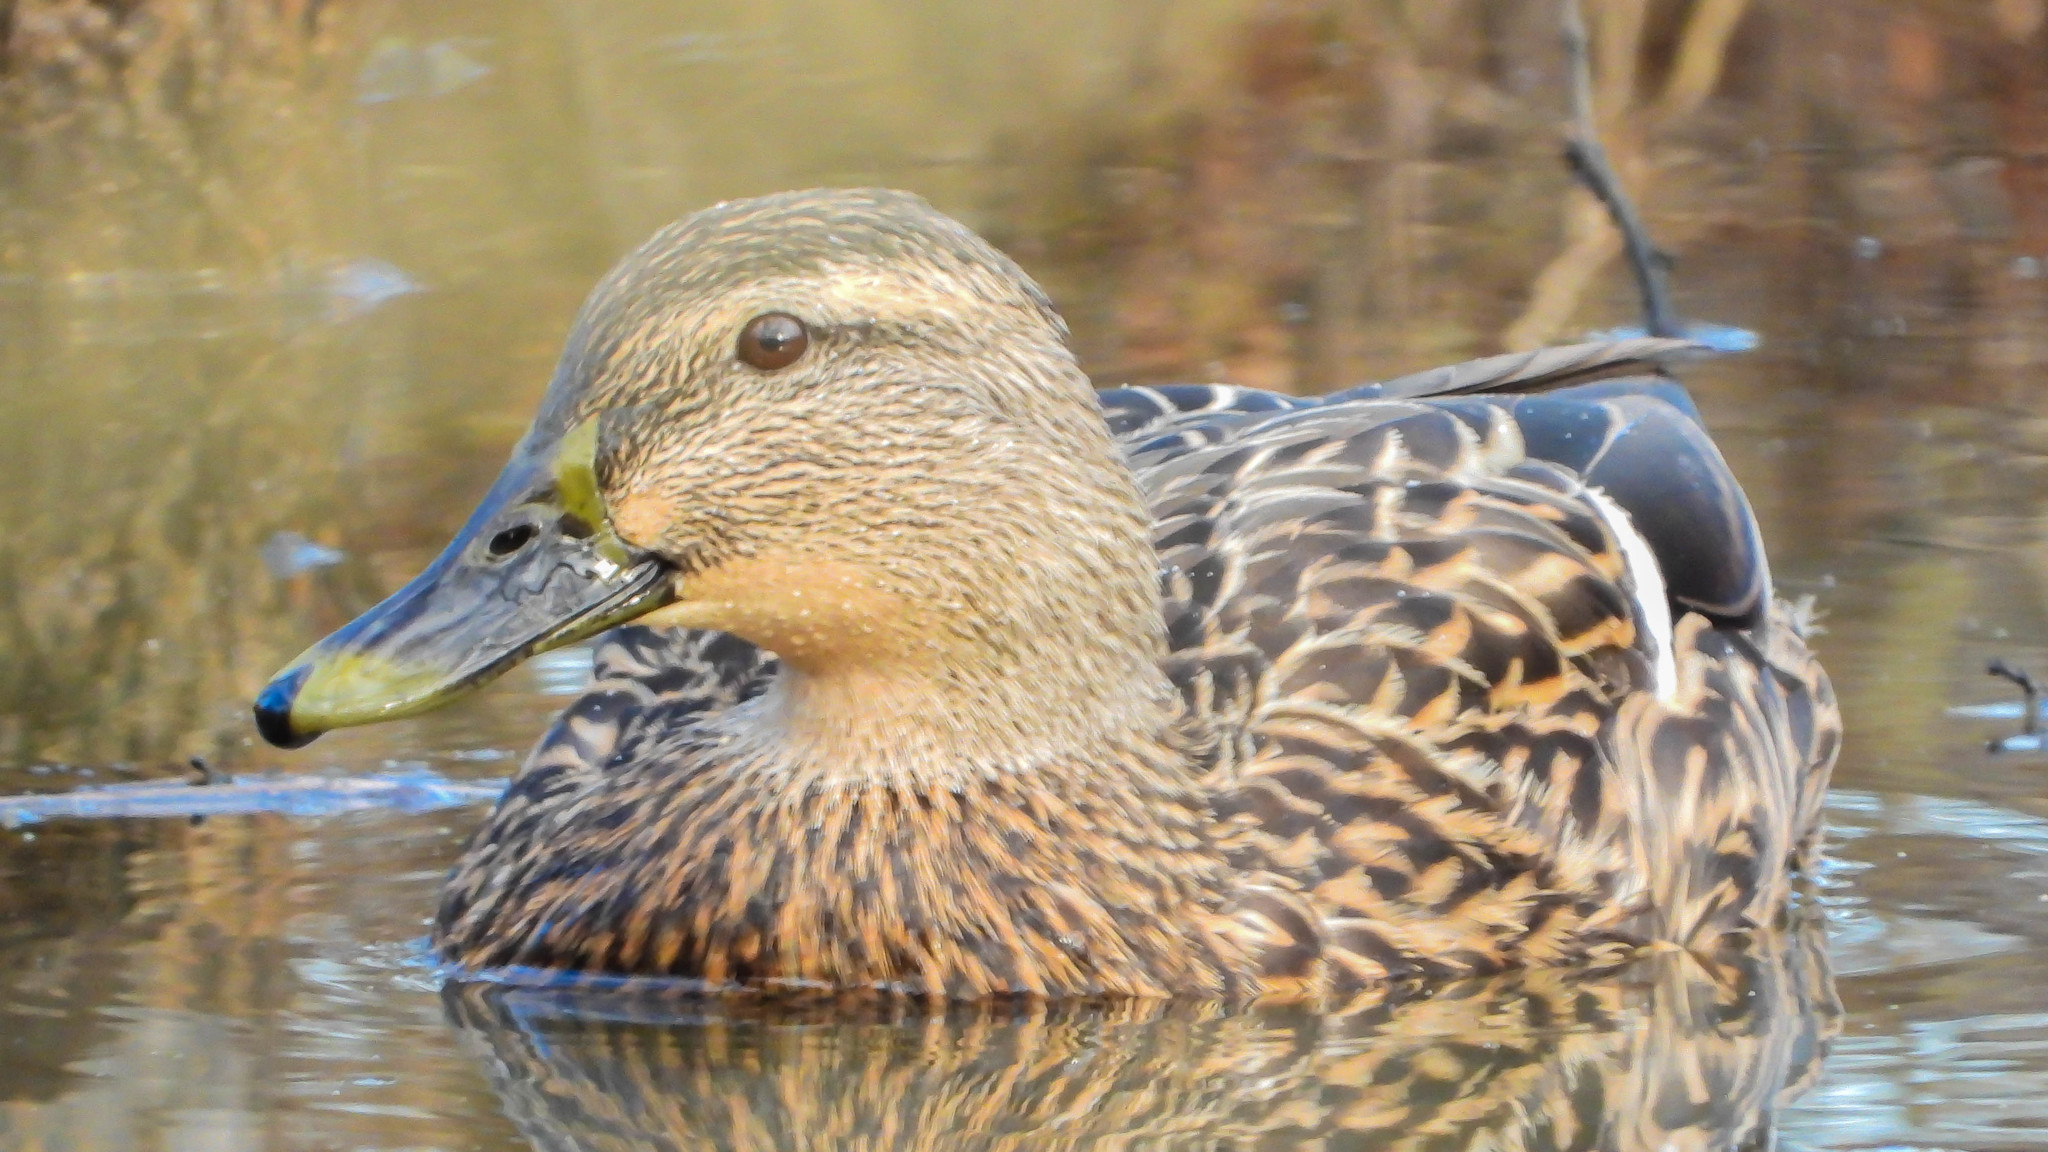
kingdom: Animalia
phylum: Chordata
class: Aves
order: Anseriformes
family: Anatidae
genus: Anas
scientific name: Anas platyrhynchos
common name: Mallard
